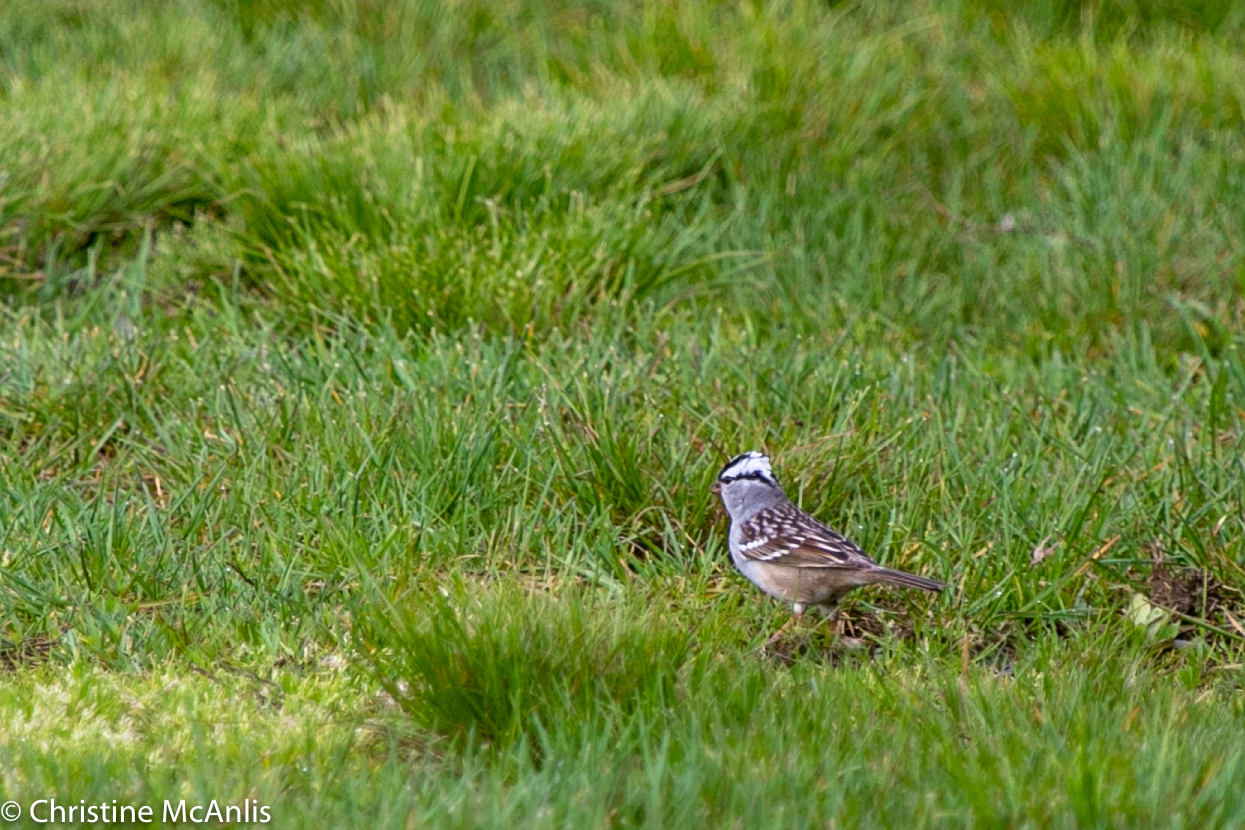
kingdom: Animalia
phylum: Chordata
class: Aves
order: Passeriformes
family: Passerellidae
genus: Zonotrichia
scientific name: Zonotrichia leucophrys
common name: White-crowned sparrow
